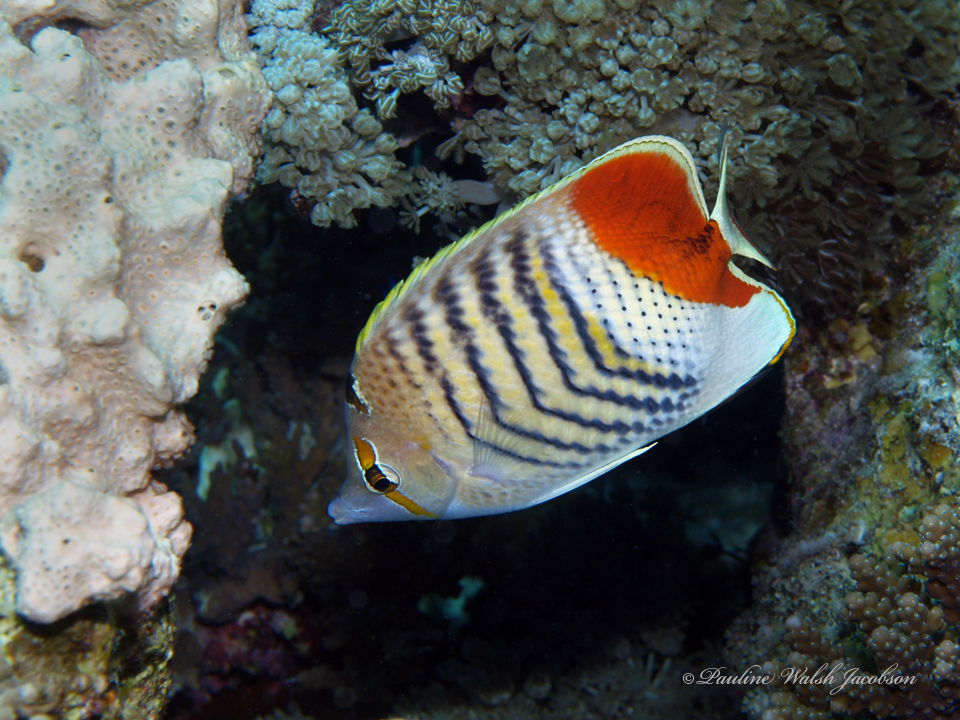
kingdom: Animalia
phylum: Chordata
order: Perciformes
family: Chaetodontidae
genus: Chaetodon
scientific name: Chaetodon paucifasciatus
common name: Crown butterflyfish
